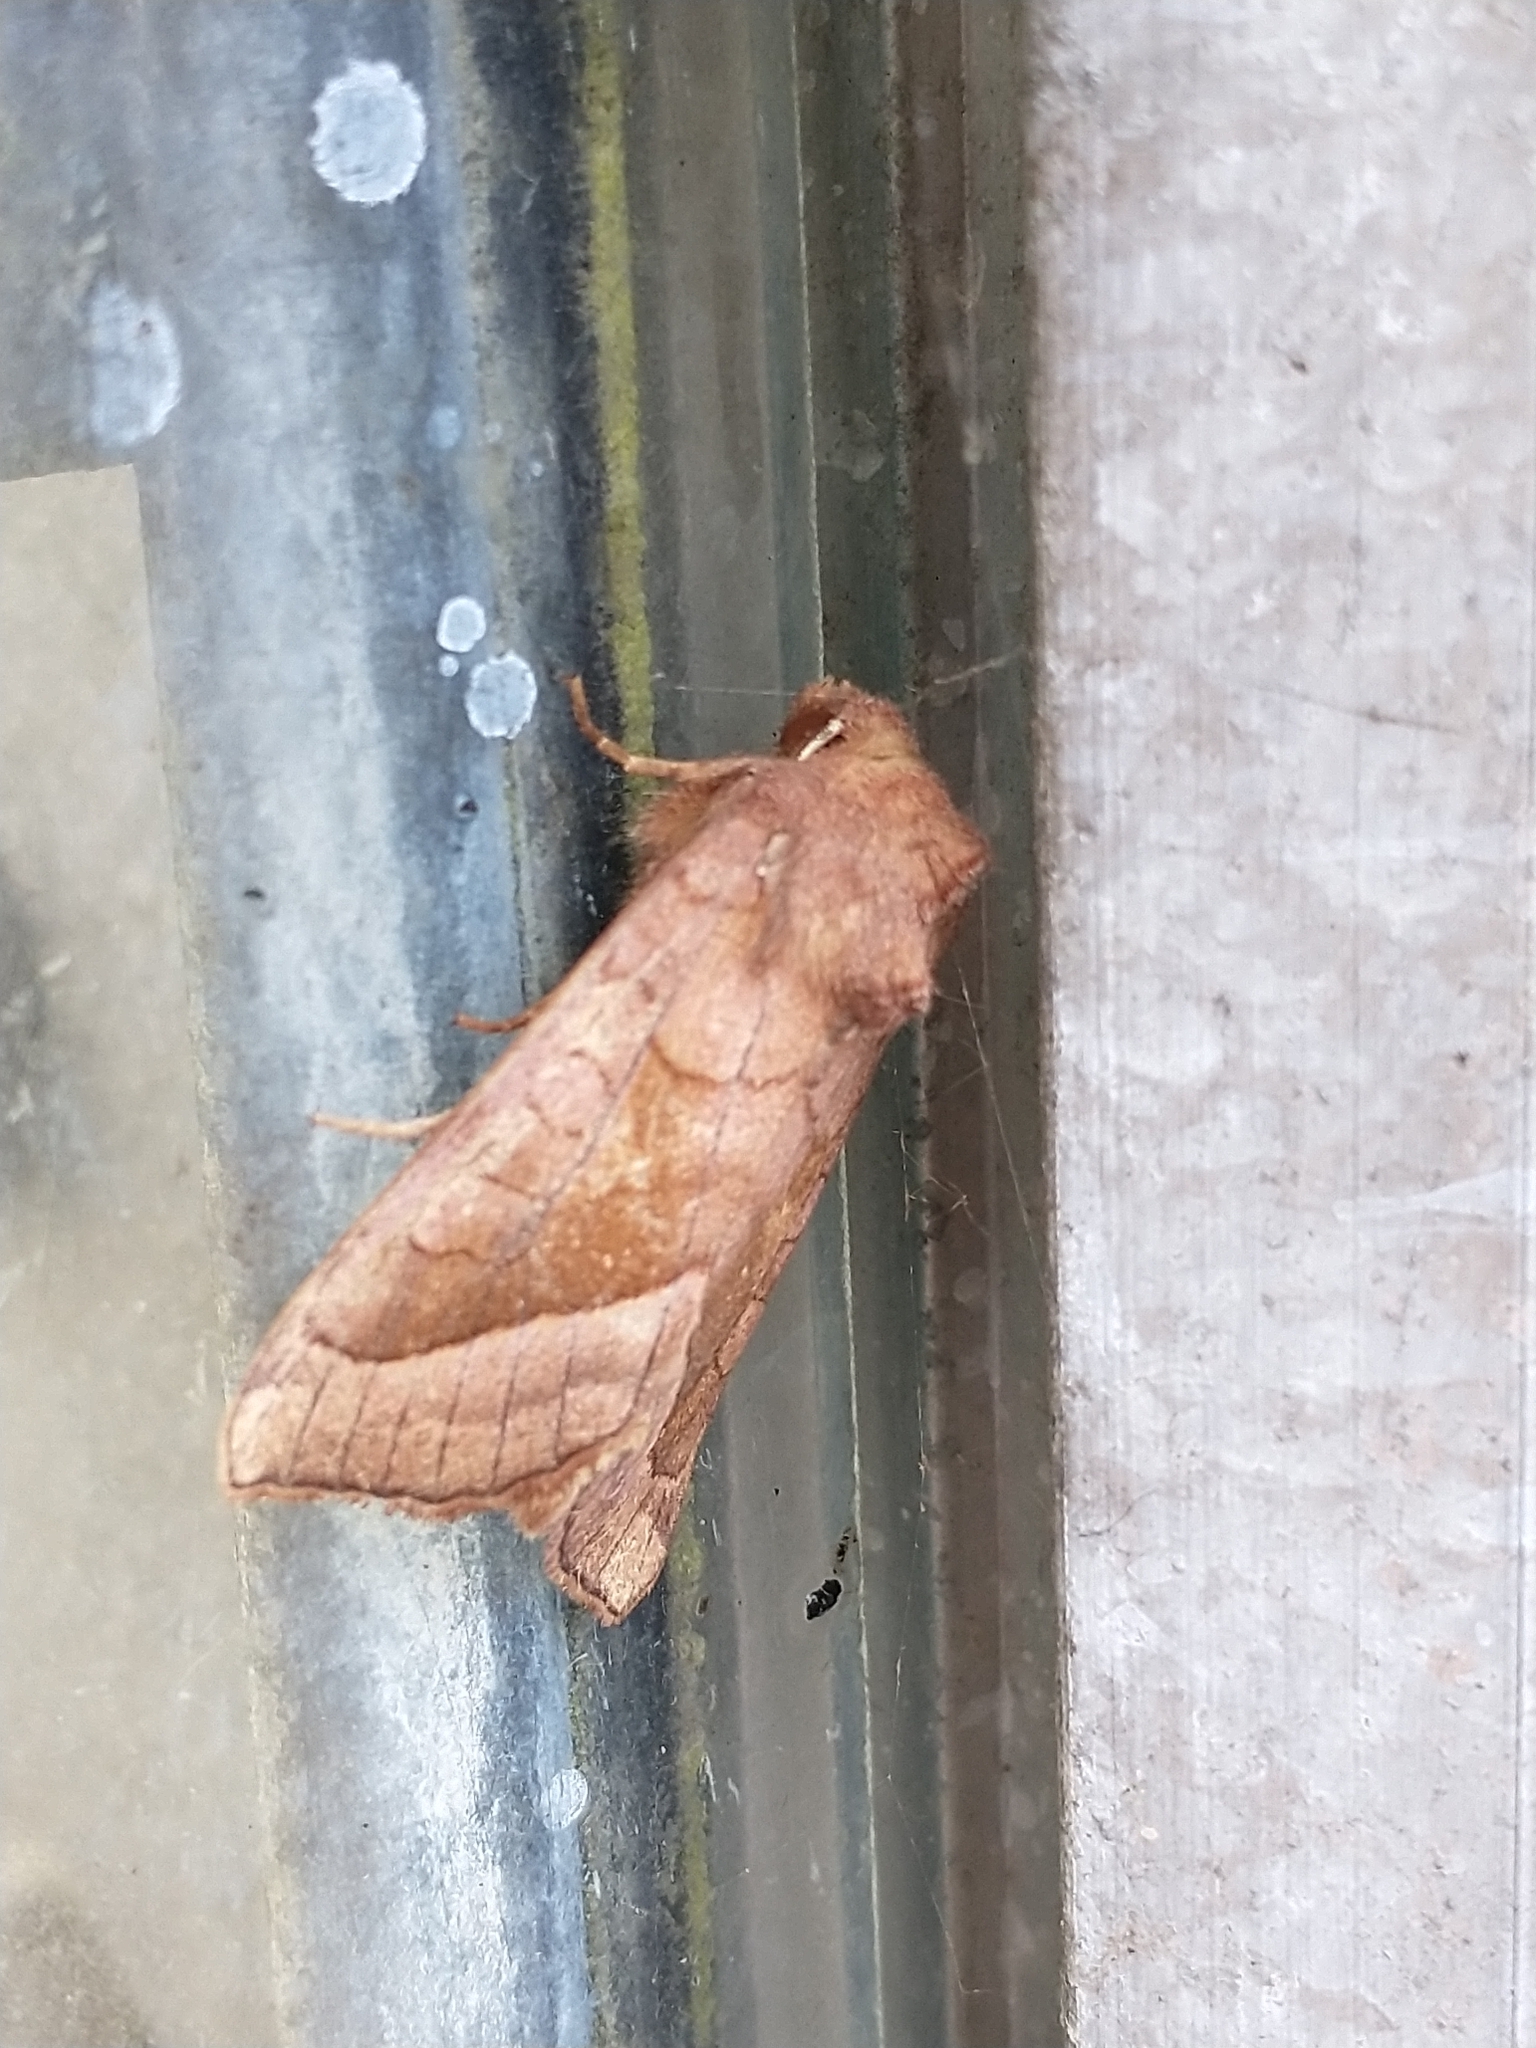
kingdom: Animalia
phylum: Arthropoda
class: Insecta
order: Lepidoptera
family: Noctuidae
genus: Hydraecia
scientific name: Hydraecia micacea
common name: Rosy rustic
